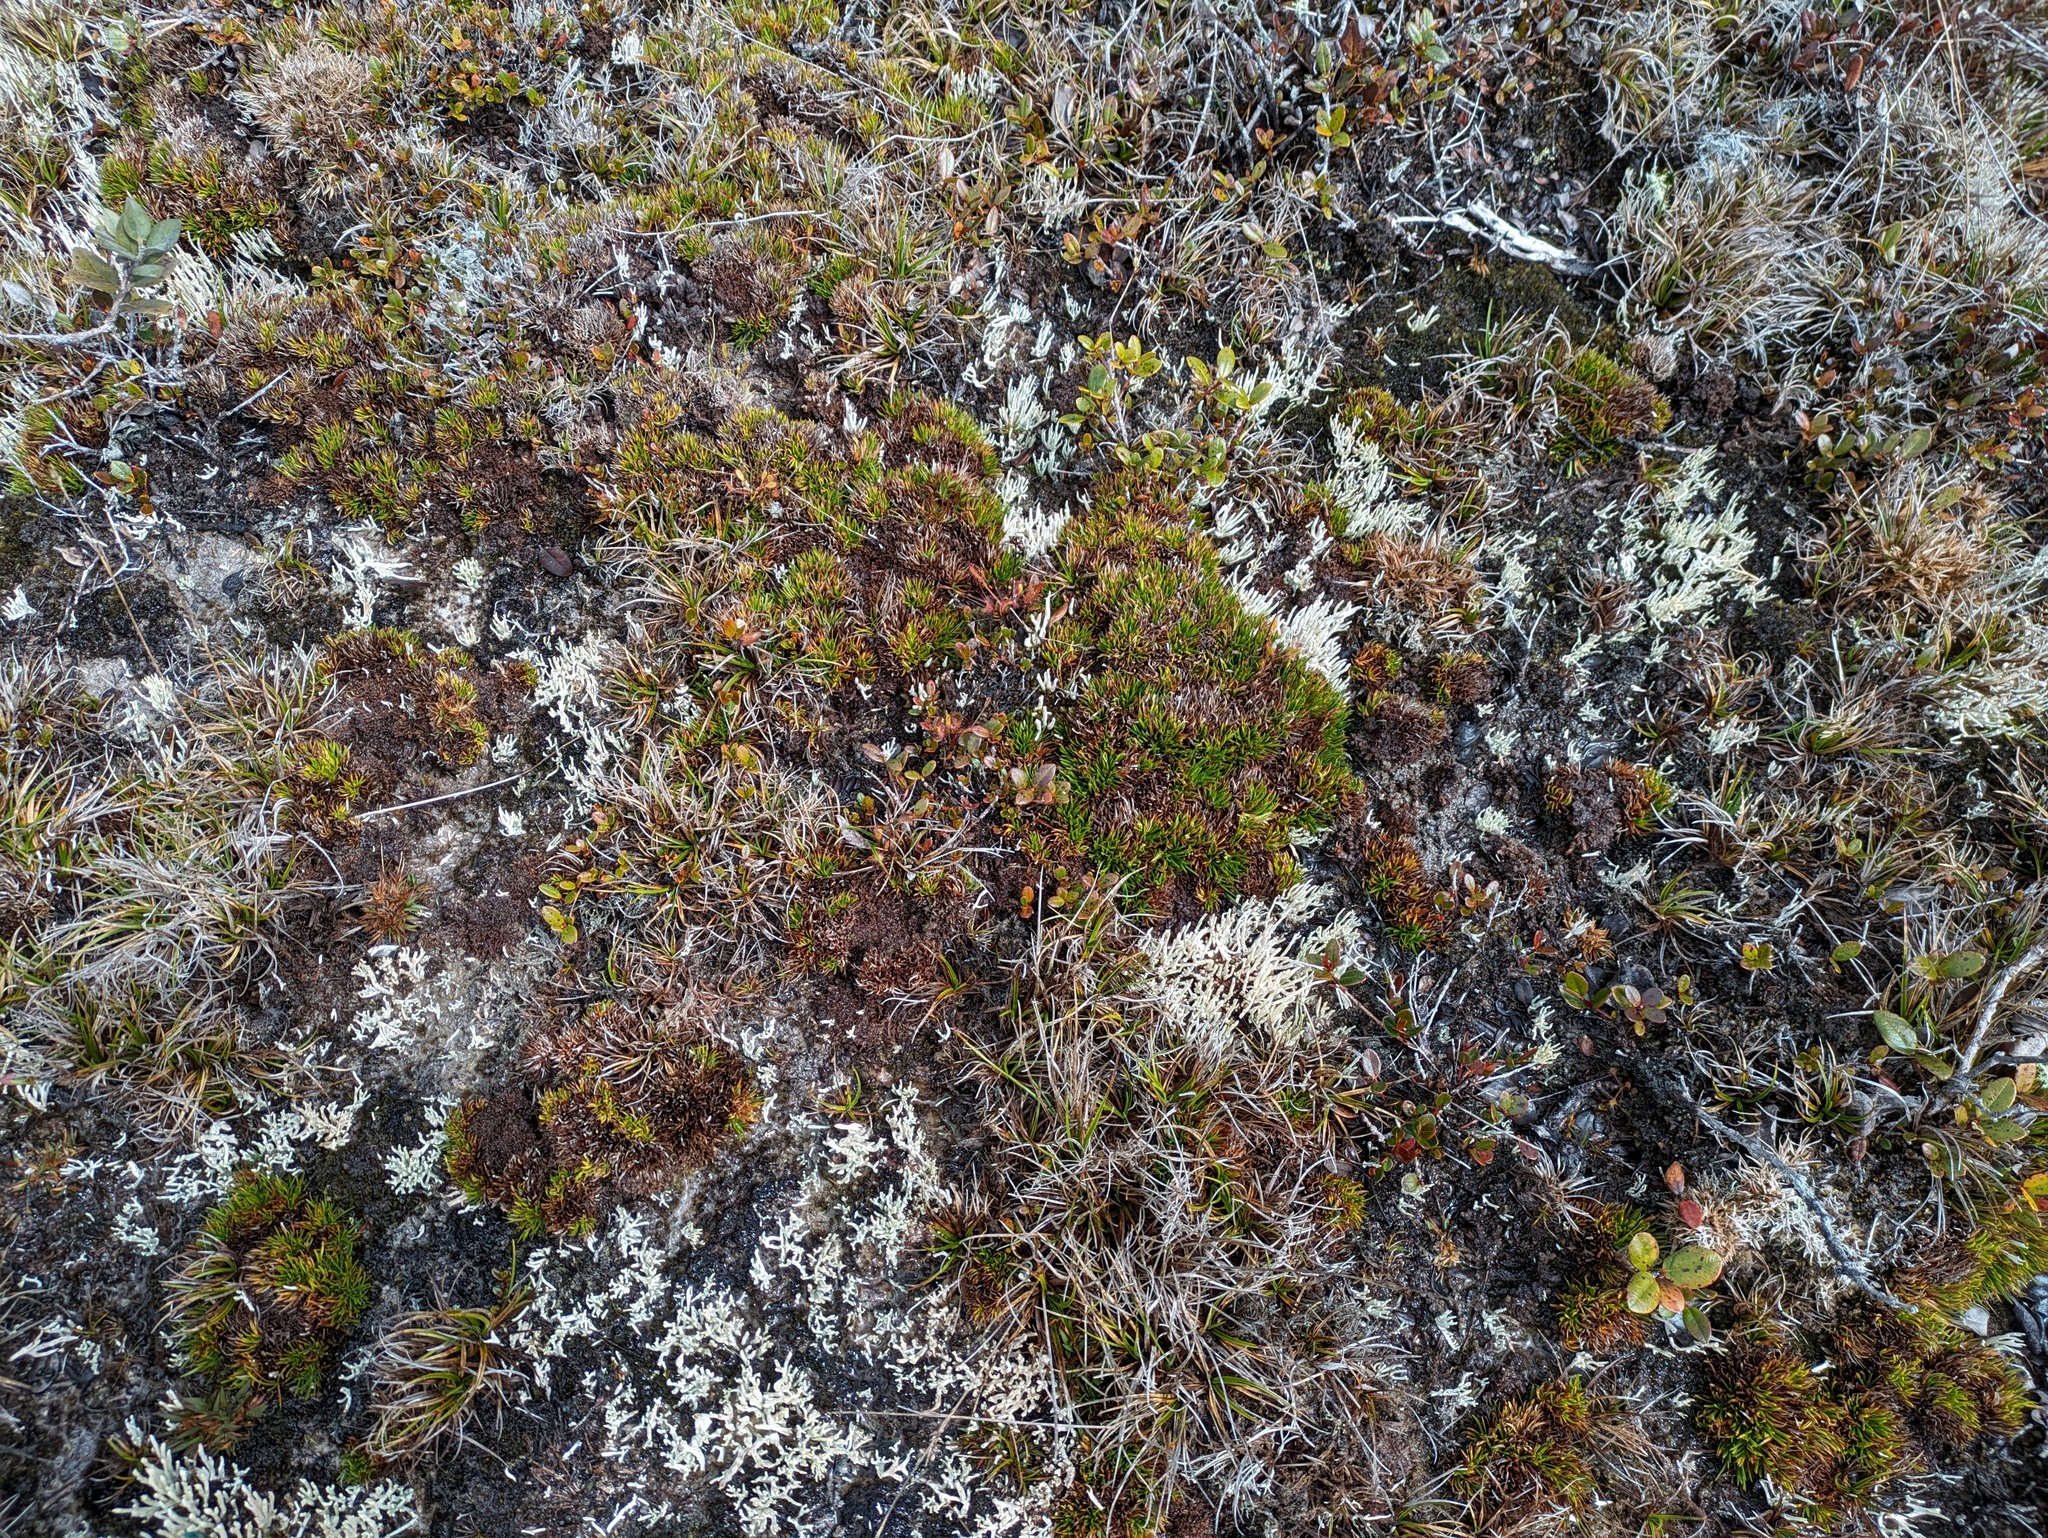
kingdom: Plantae
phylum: Tracheophyta
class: Liliopsida
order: Poales
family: Cyperaceae
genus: Oreobolus
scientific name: Oreobolus furcatus
